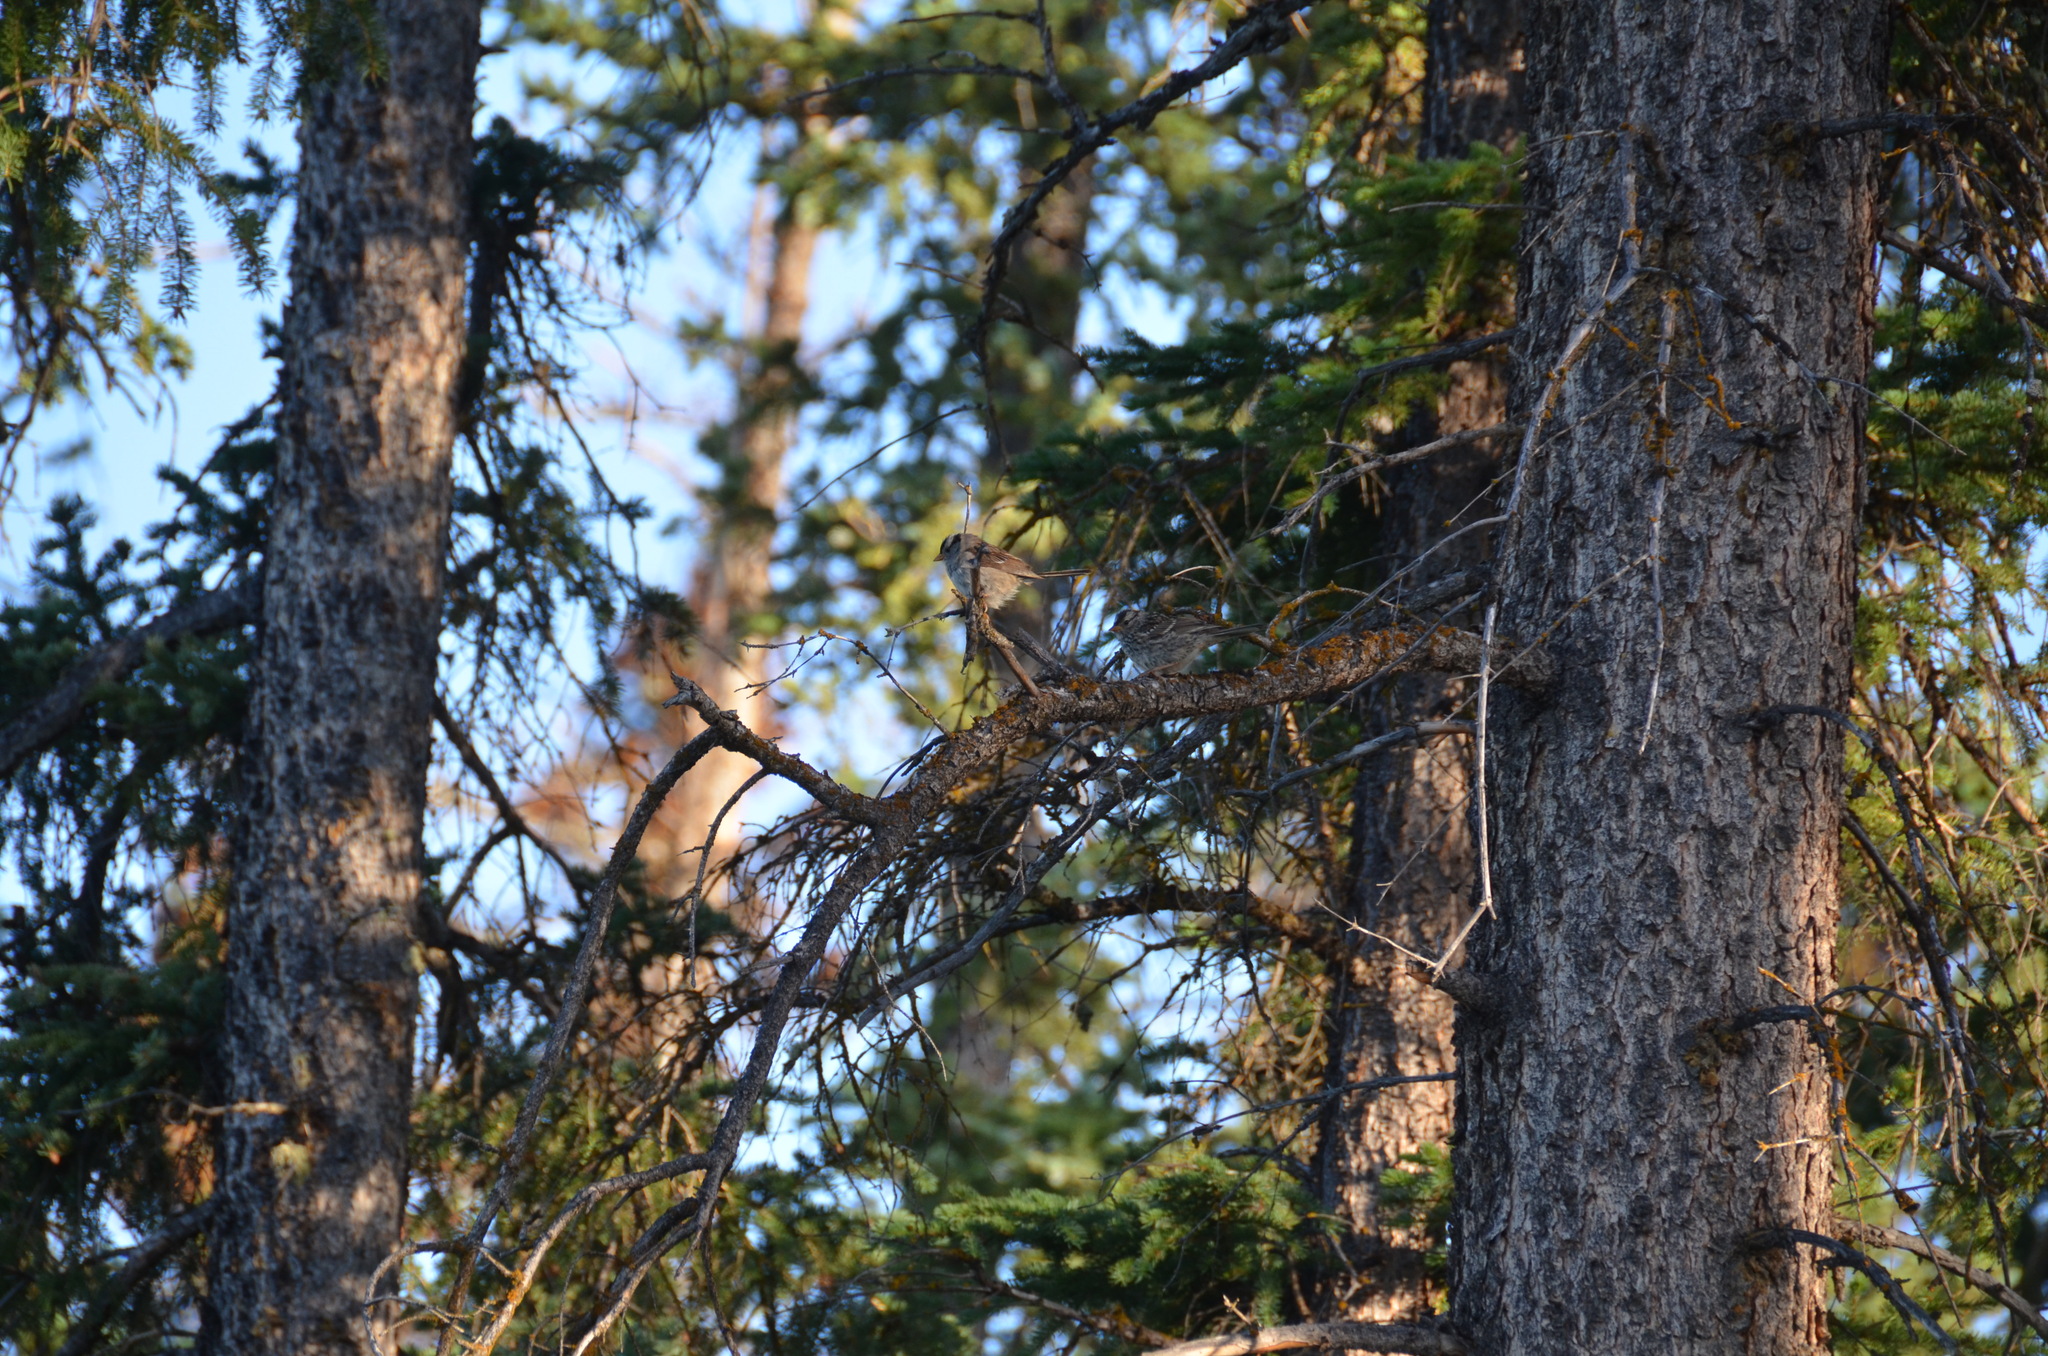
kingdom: Animalia
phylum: Chordata
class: Aves
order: Passeriformes
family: Passerellidae
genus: Zonotrichia
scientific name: Zonotrichia leucophrys
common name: White-crowned sparrow
